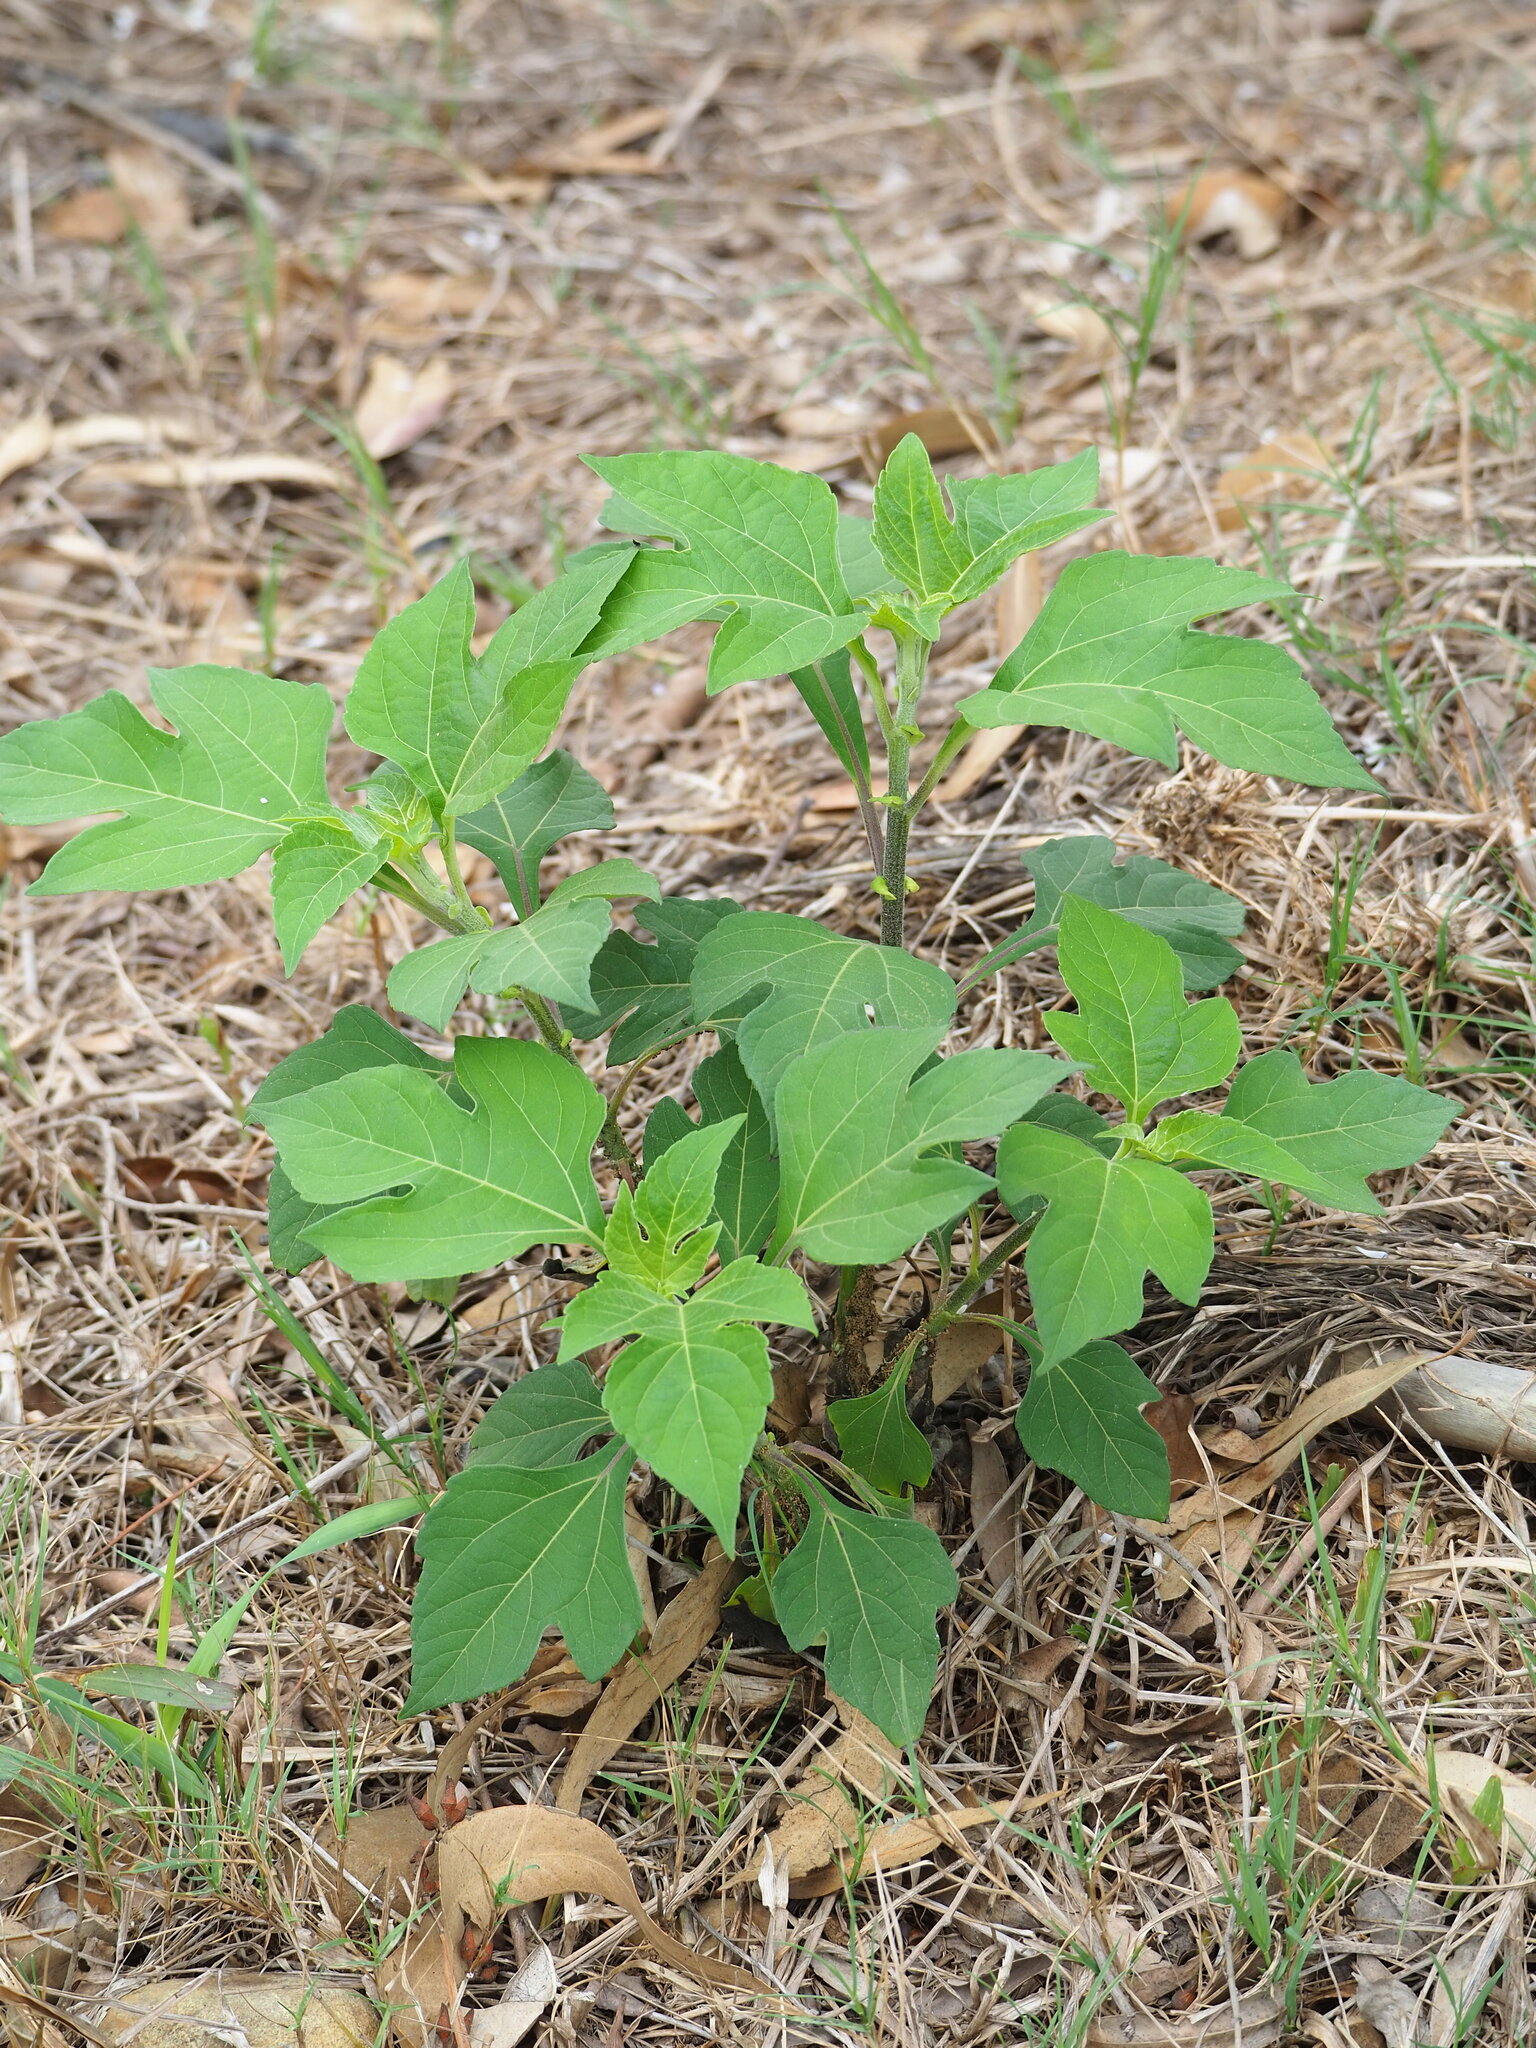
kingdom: Plantae
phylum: Tracheophyta
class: Magnoliopsida
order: Asterales
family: Asteraceae
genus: Tithonia
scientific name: Tithonia diversifolia
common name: Tree marigold
